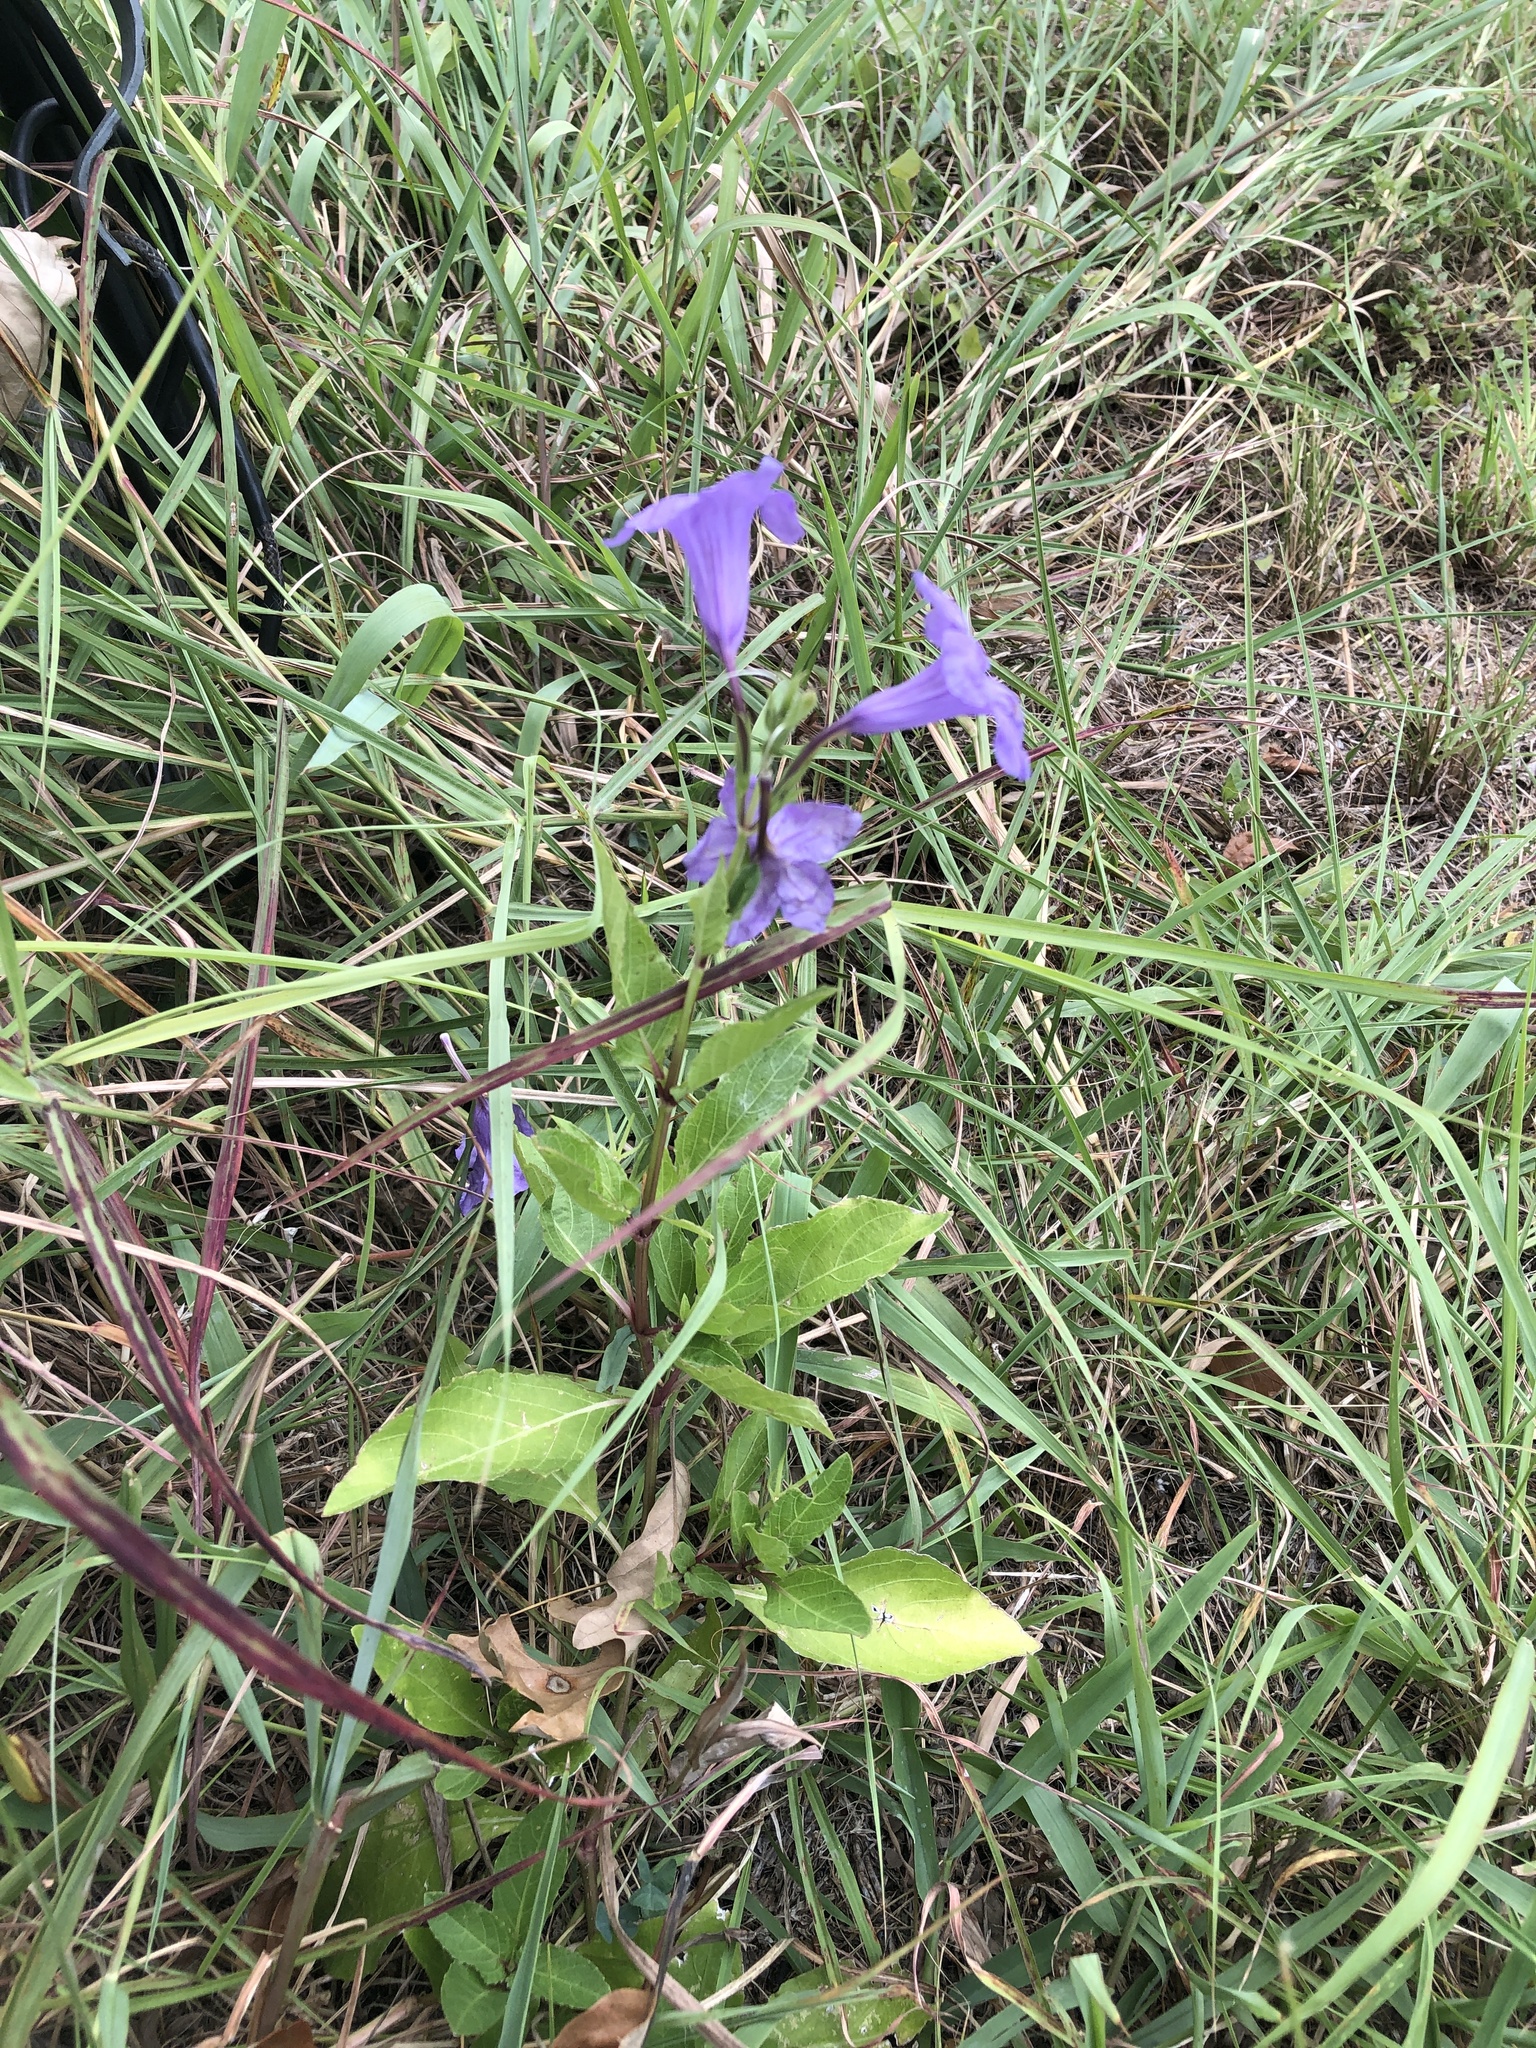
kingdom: Plantae
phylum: Tracheophyta
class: Magnoliopsida
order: Lamiales
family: Acanthaceae
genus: Ruellia
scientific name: Ruellia ciliatiflora
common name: Hairyflower wild petunia
